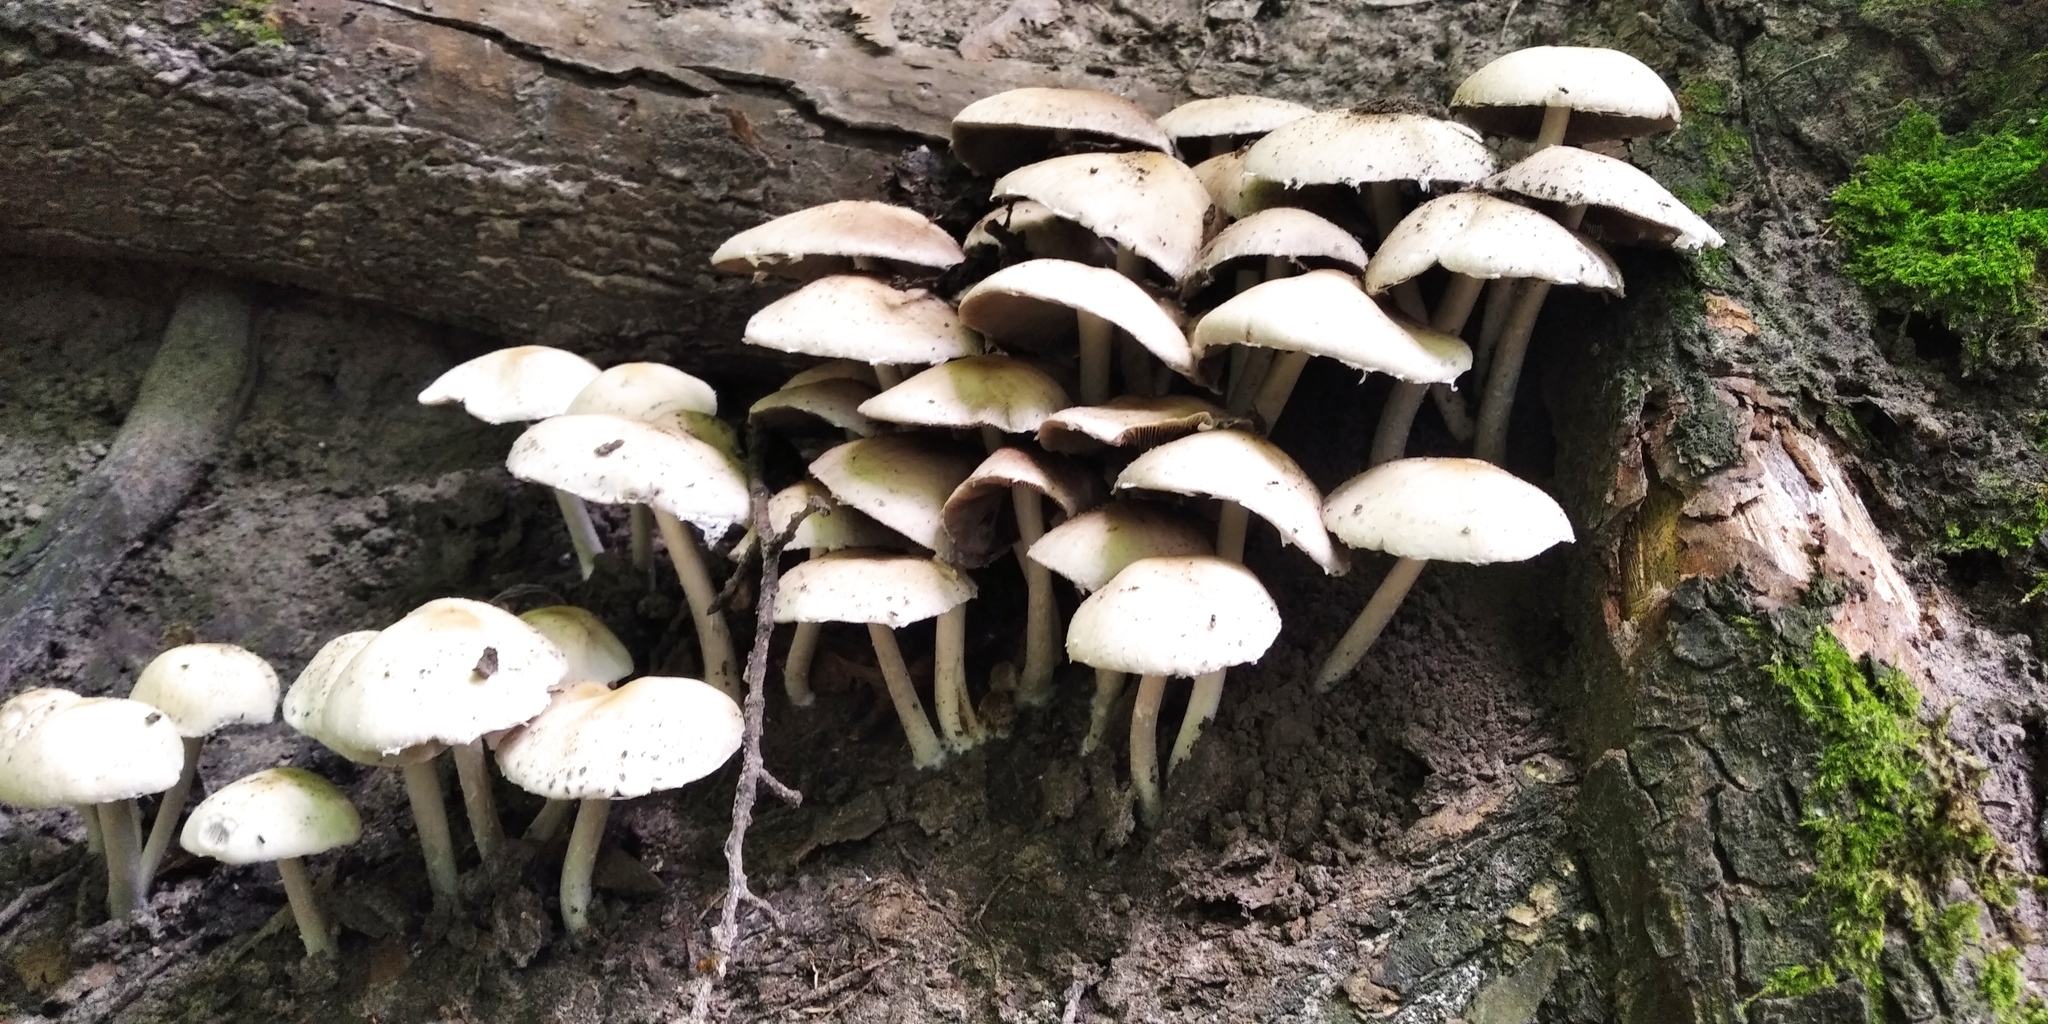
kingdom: Fungi
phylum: Basidiomycota
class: Agaricomycetes
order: Agaricales
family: Psathyrellaceae
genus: Candolleomyces
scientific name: Candolleomyces candolleanus
